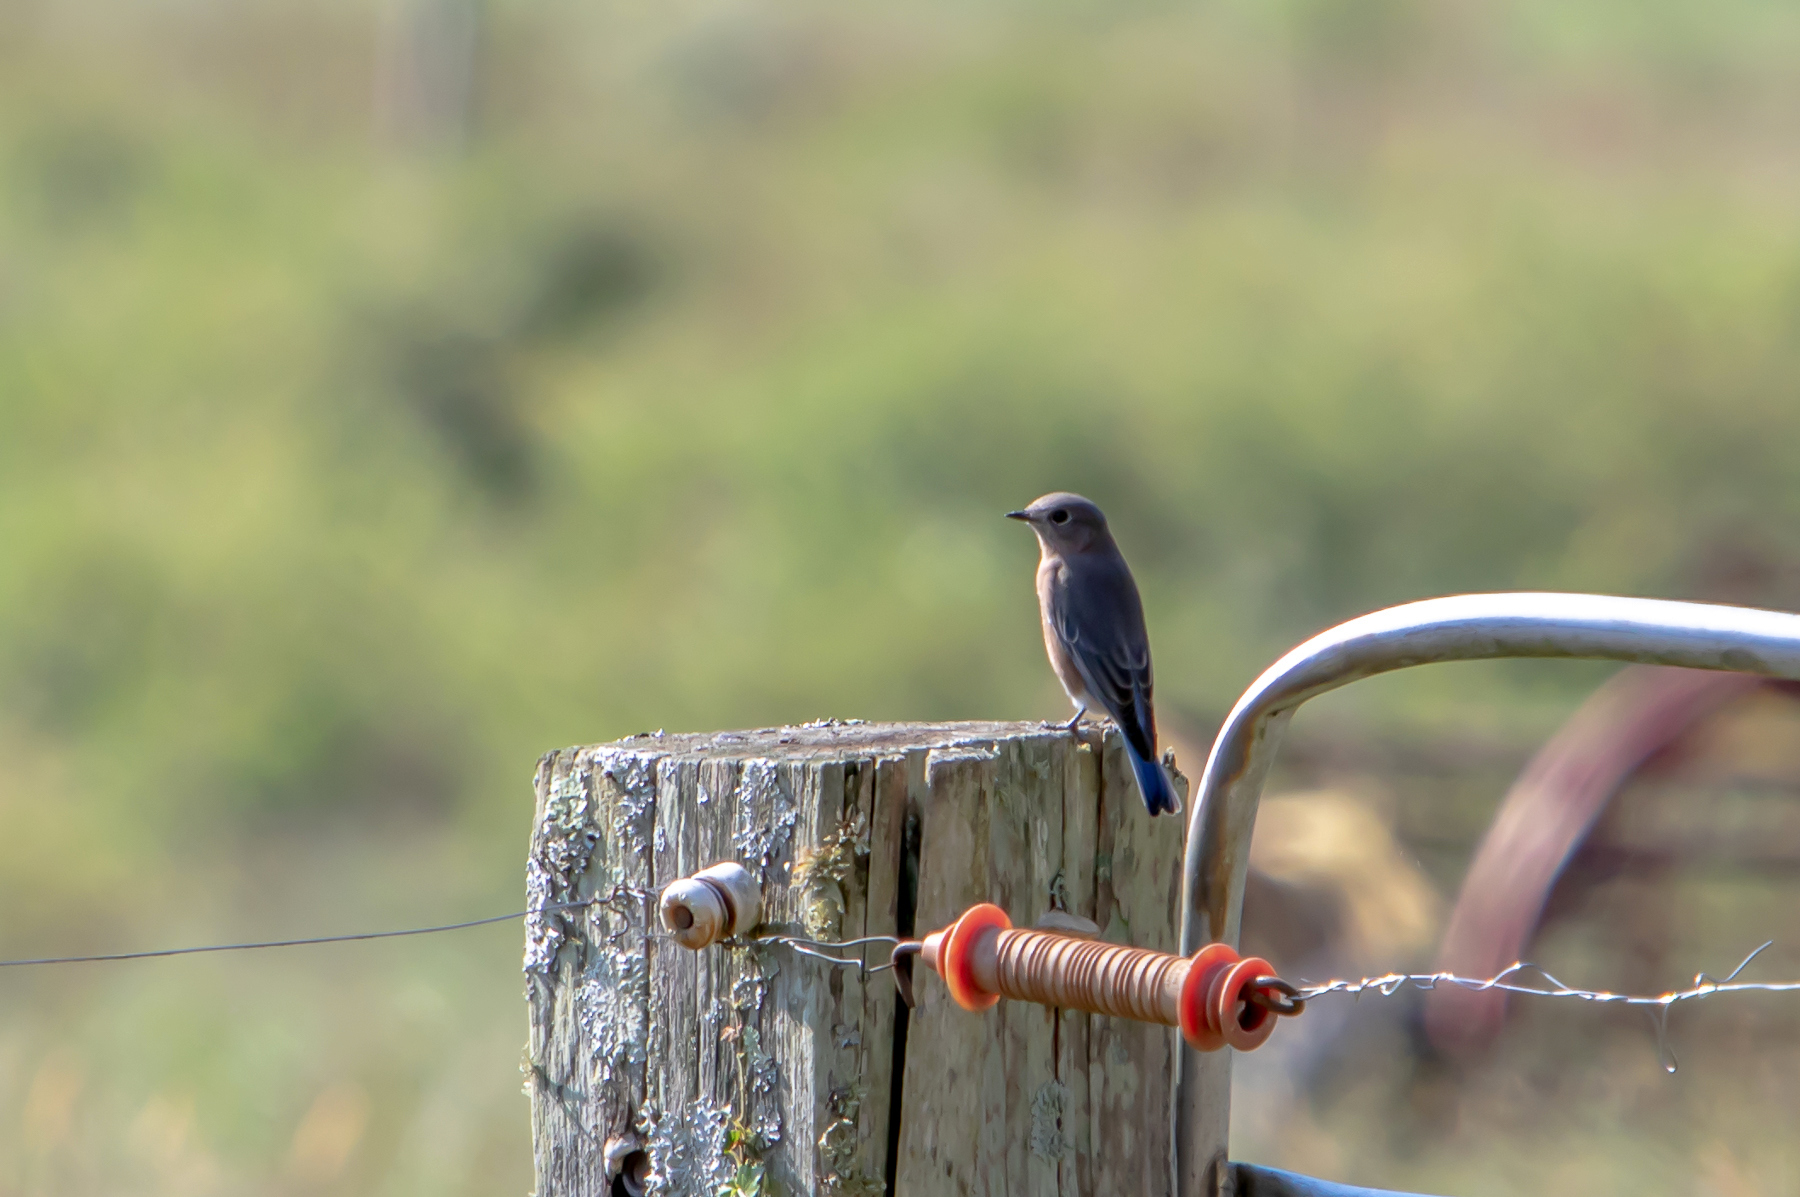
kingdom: Animalia
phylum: Chordata
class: Aves
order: Passeriformes
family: Turdidae
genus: Sialia
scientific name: Sialia sialis
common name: Eastern bluebird
